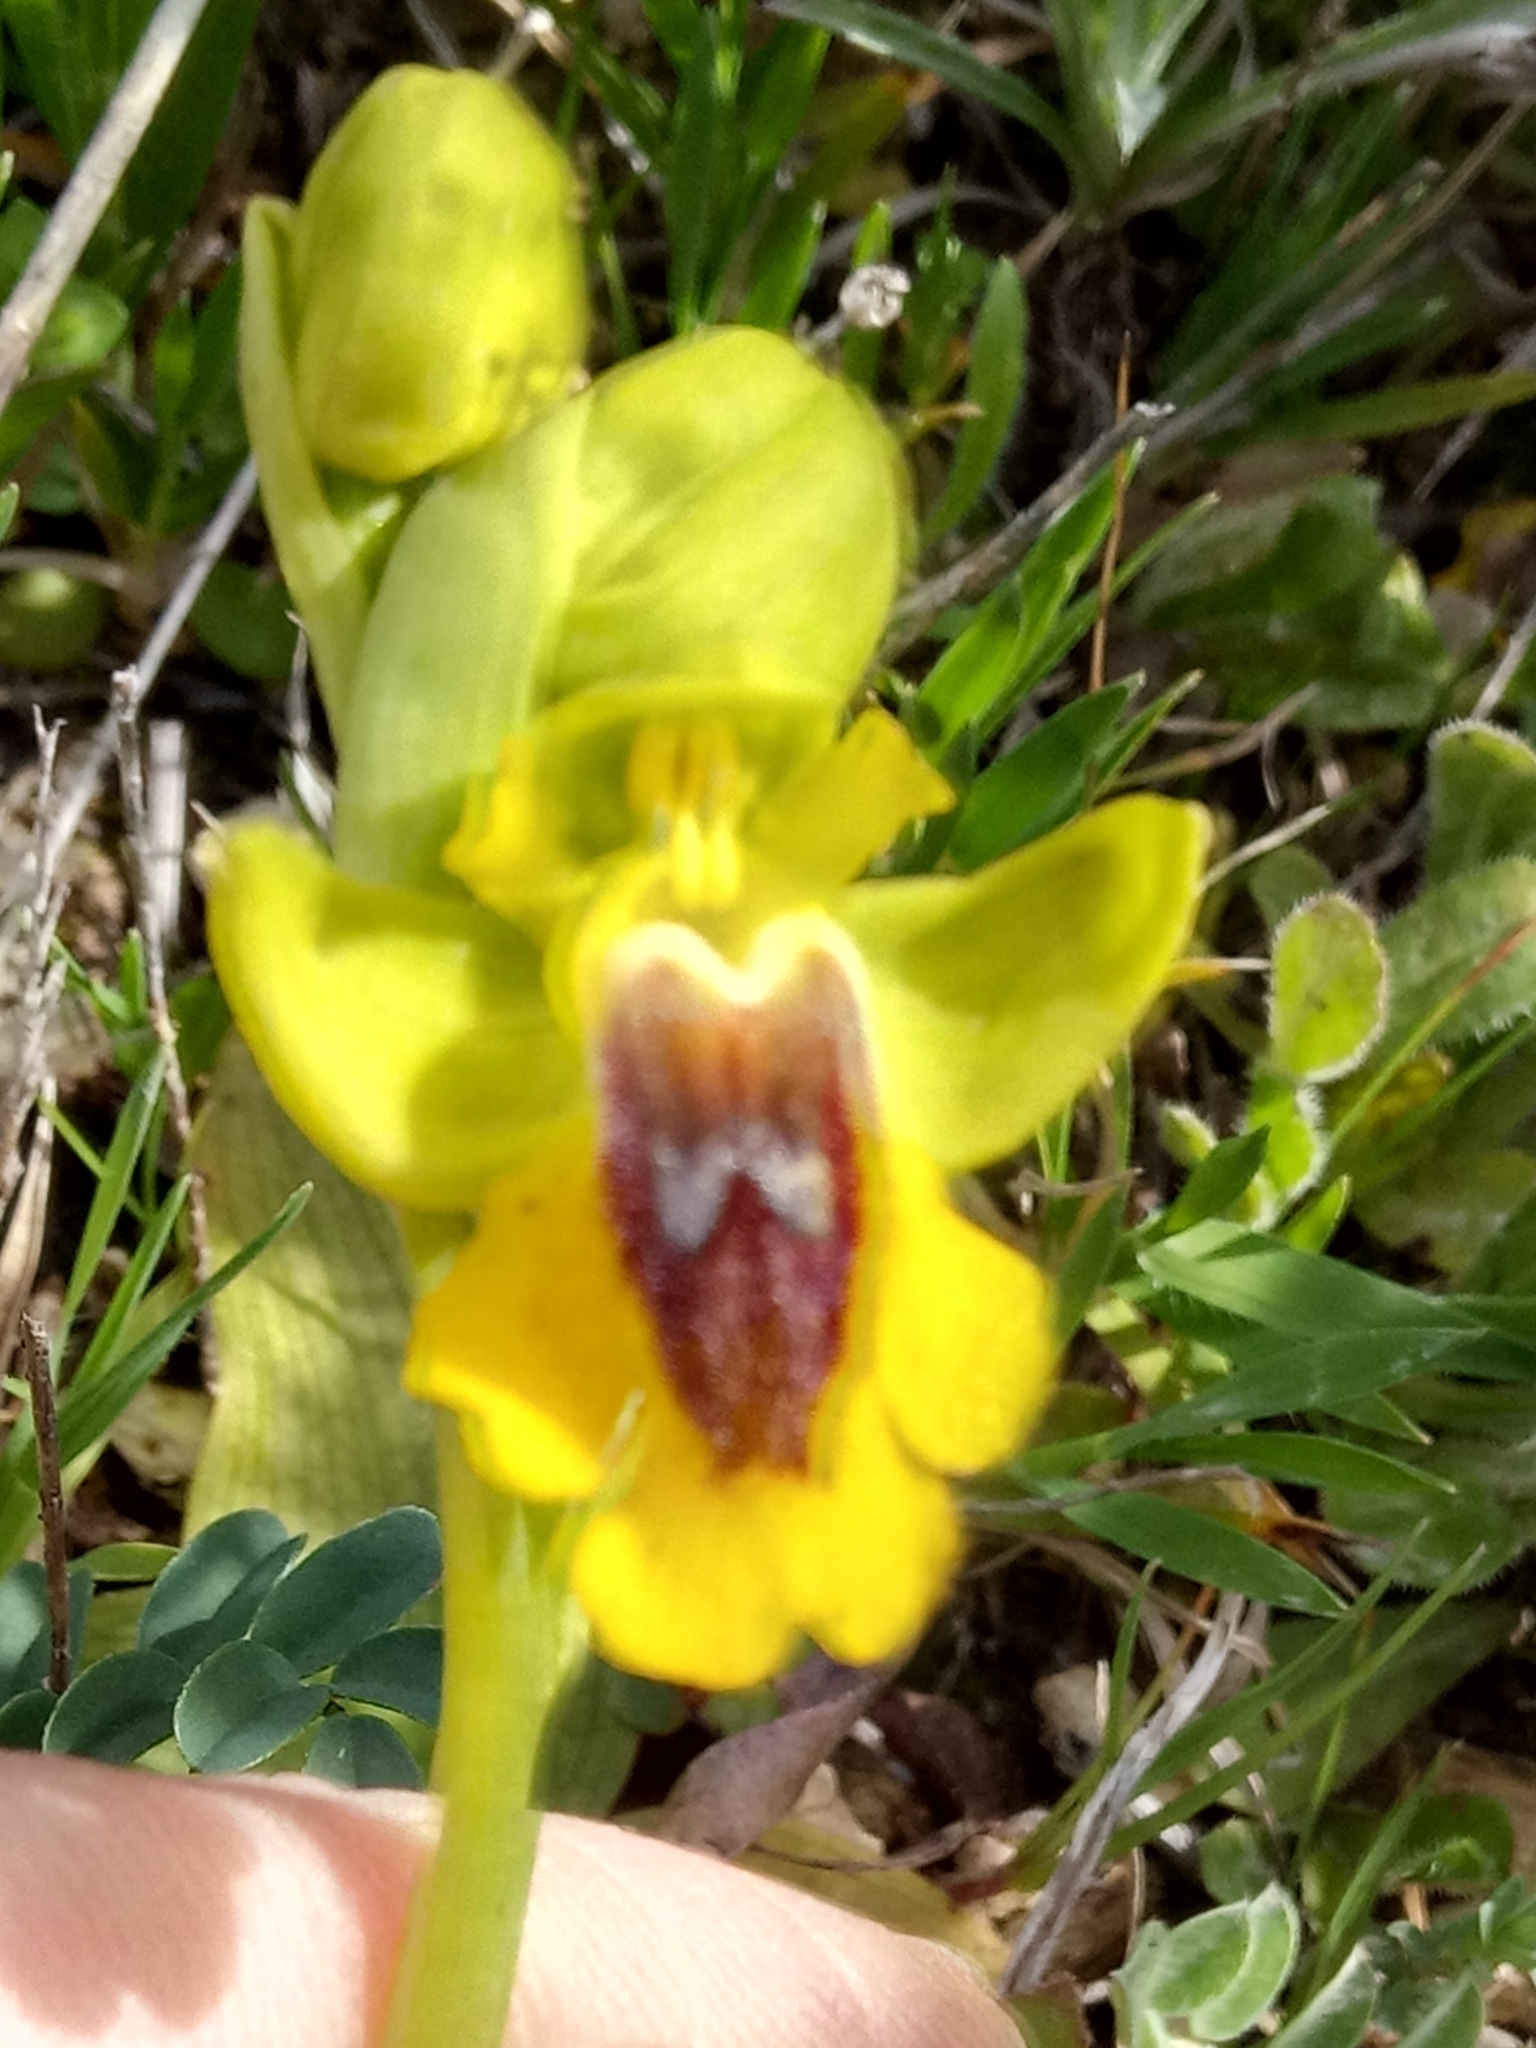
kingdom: Plantae
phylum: Tracheophyta
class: Liliopsida
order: Asparagales
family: Orchidaceae
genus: Ophrys
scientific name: Ophrys lutea
